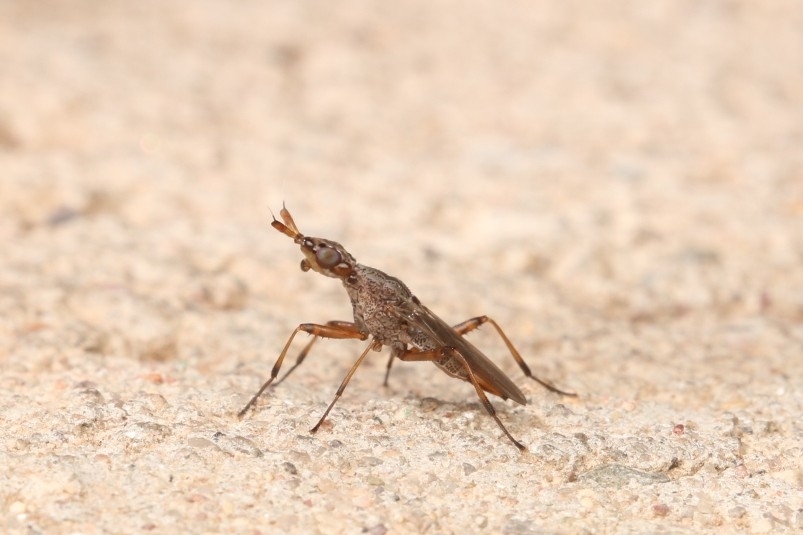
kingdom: Animalia
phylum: Arthropoda
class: Insecta
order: Diptera
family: Neriidae
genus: Odontoloxozus
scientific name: Odontoloxozus longicornis
